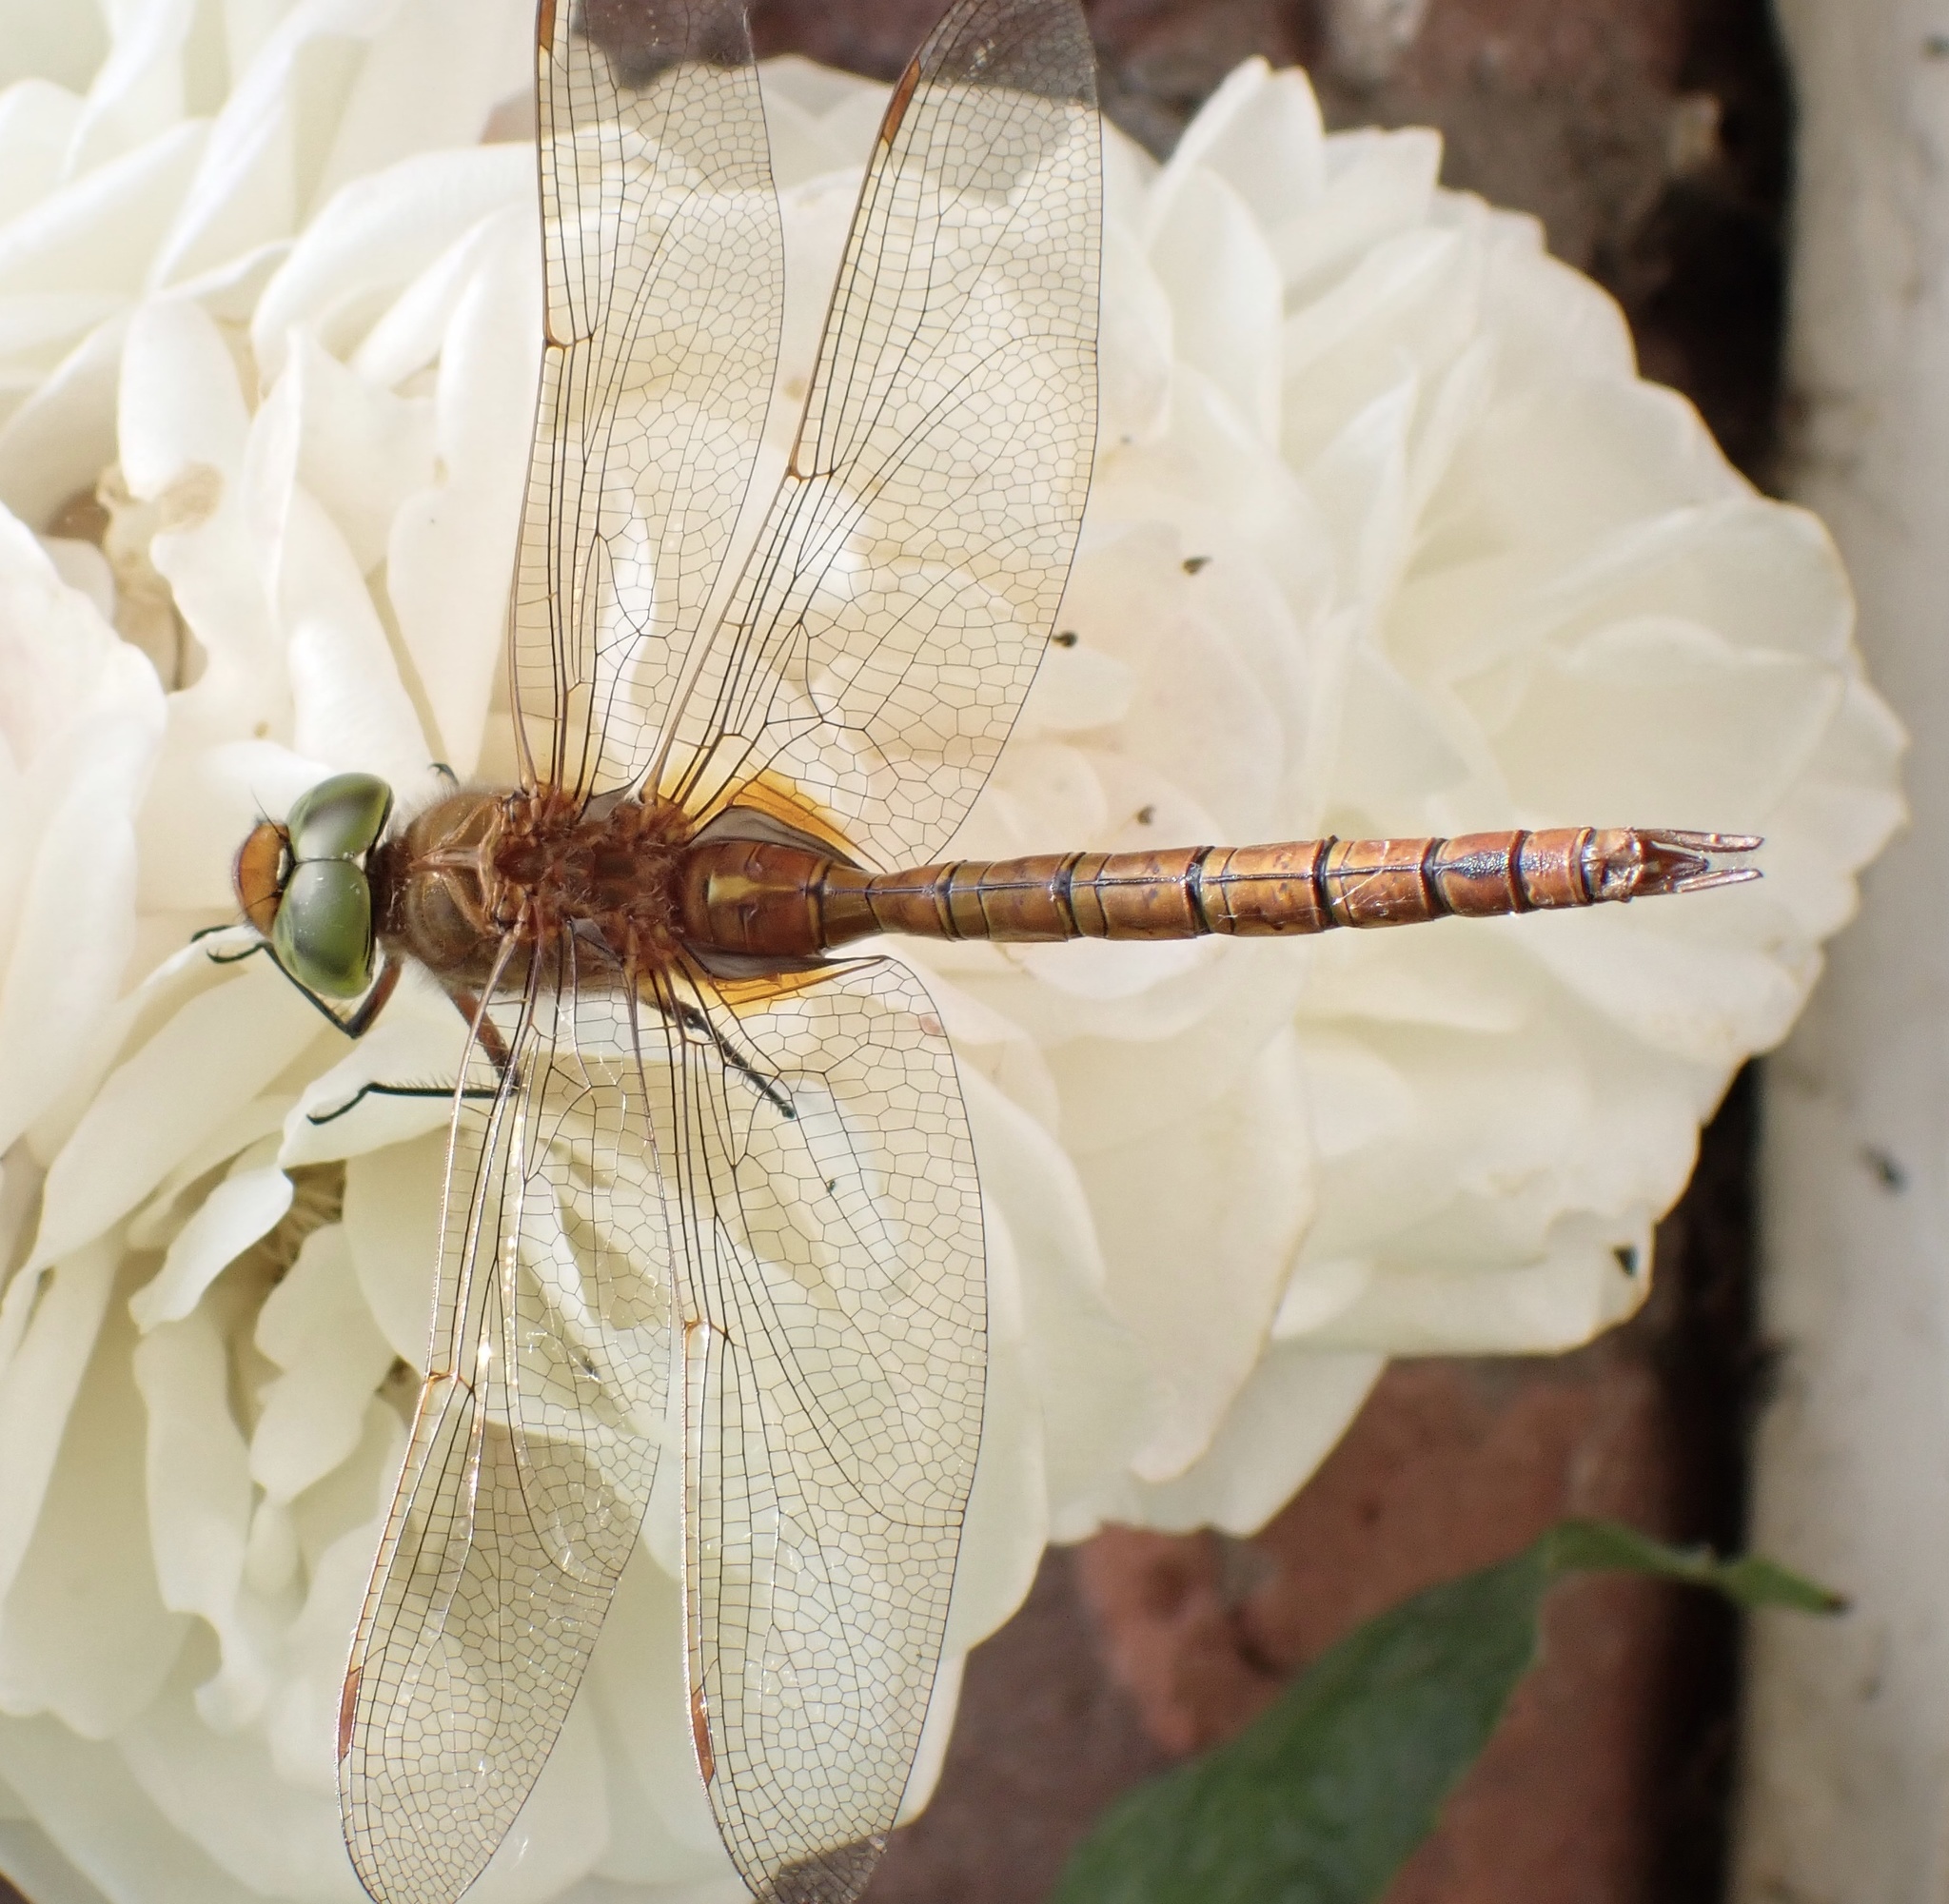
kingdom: Animalia
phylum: Arthropoda
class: Insecta
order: Odonata
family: Aeshnidae
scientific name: Aeshnidae
